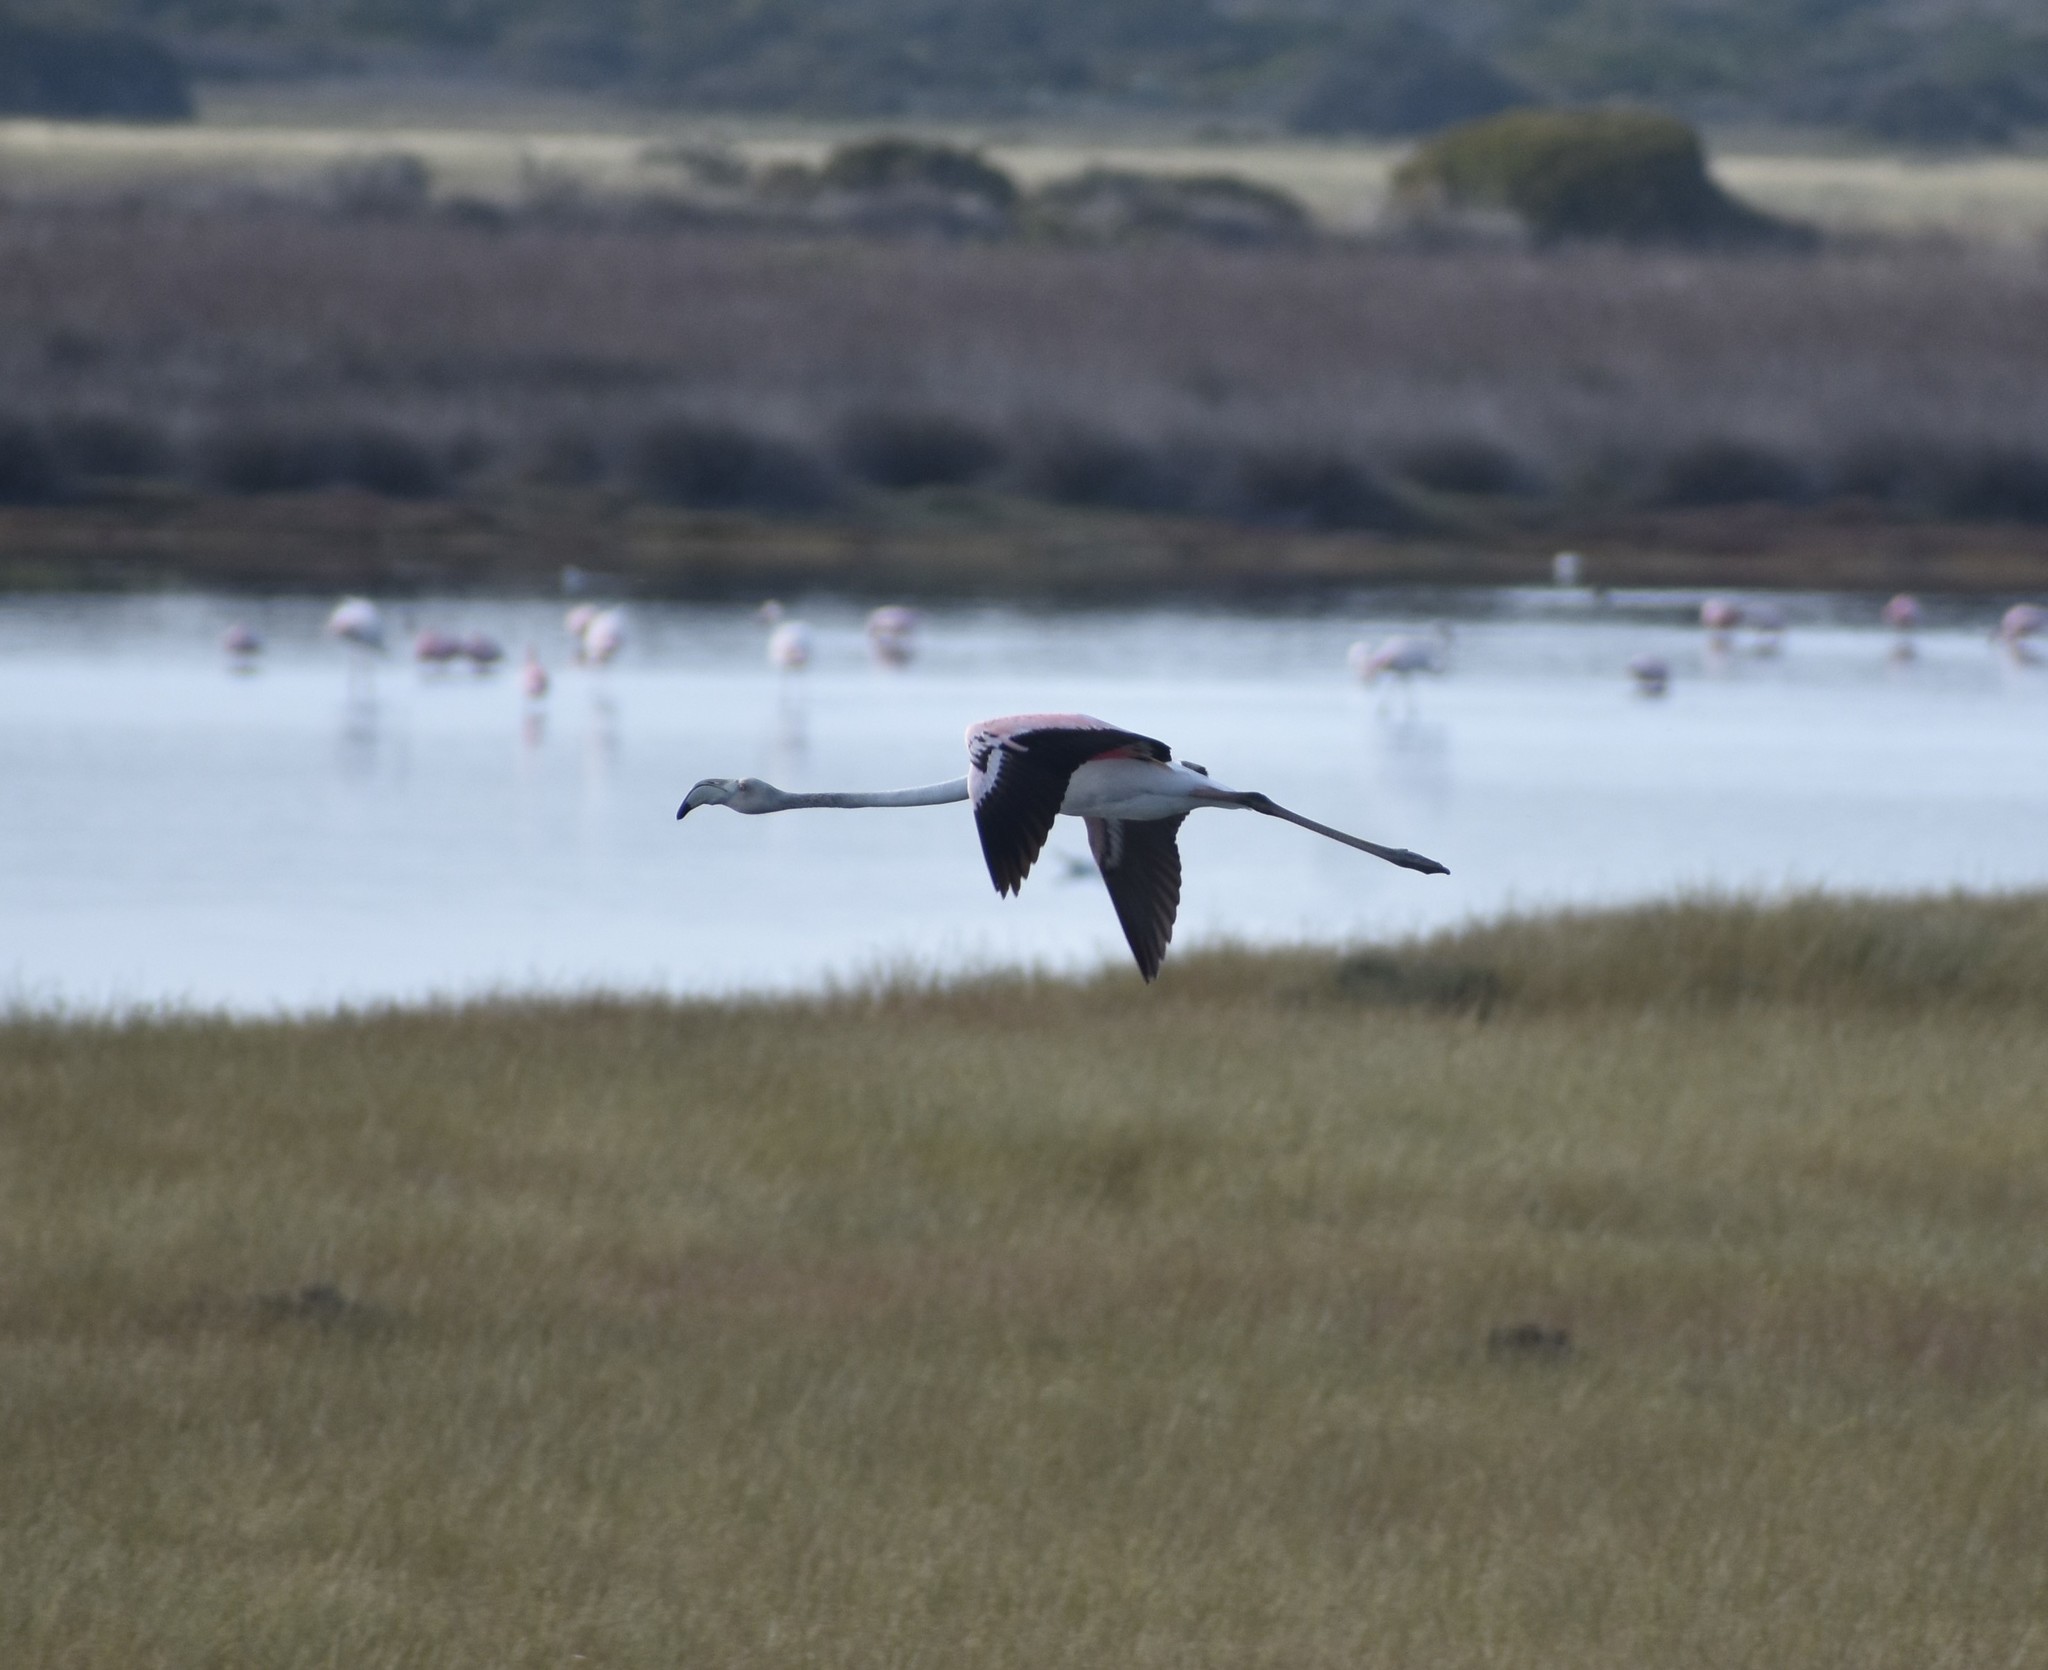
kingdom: Animalia
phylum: Chordata
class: Aves
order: Phoenicopteriformes
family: Phoenicopteridae
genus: Phoenicopterus
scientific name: Phoenicopterus roseus
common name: Greater flamingo
